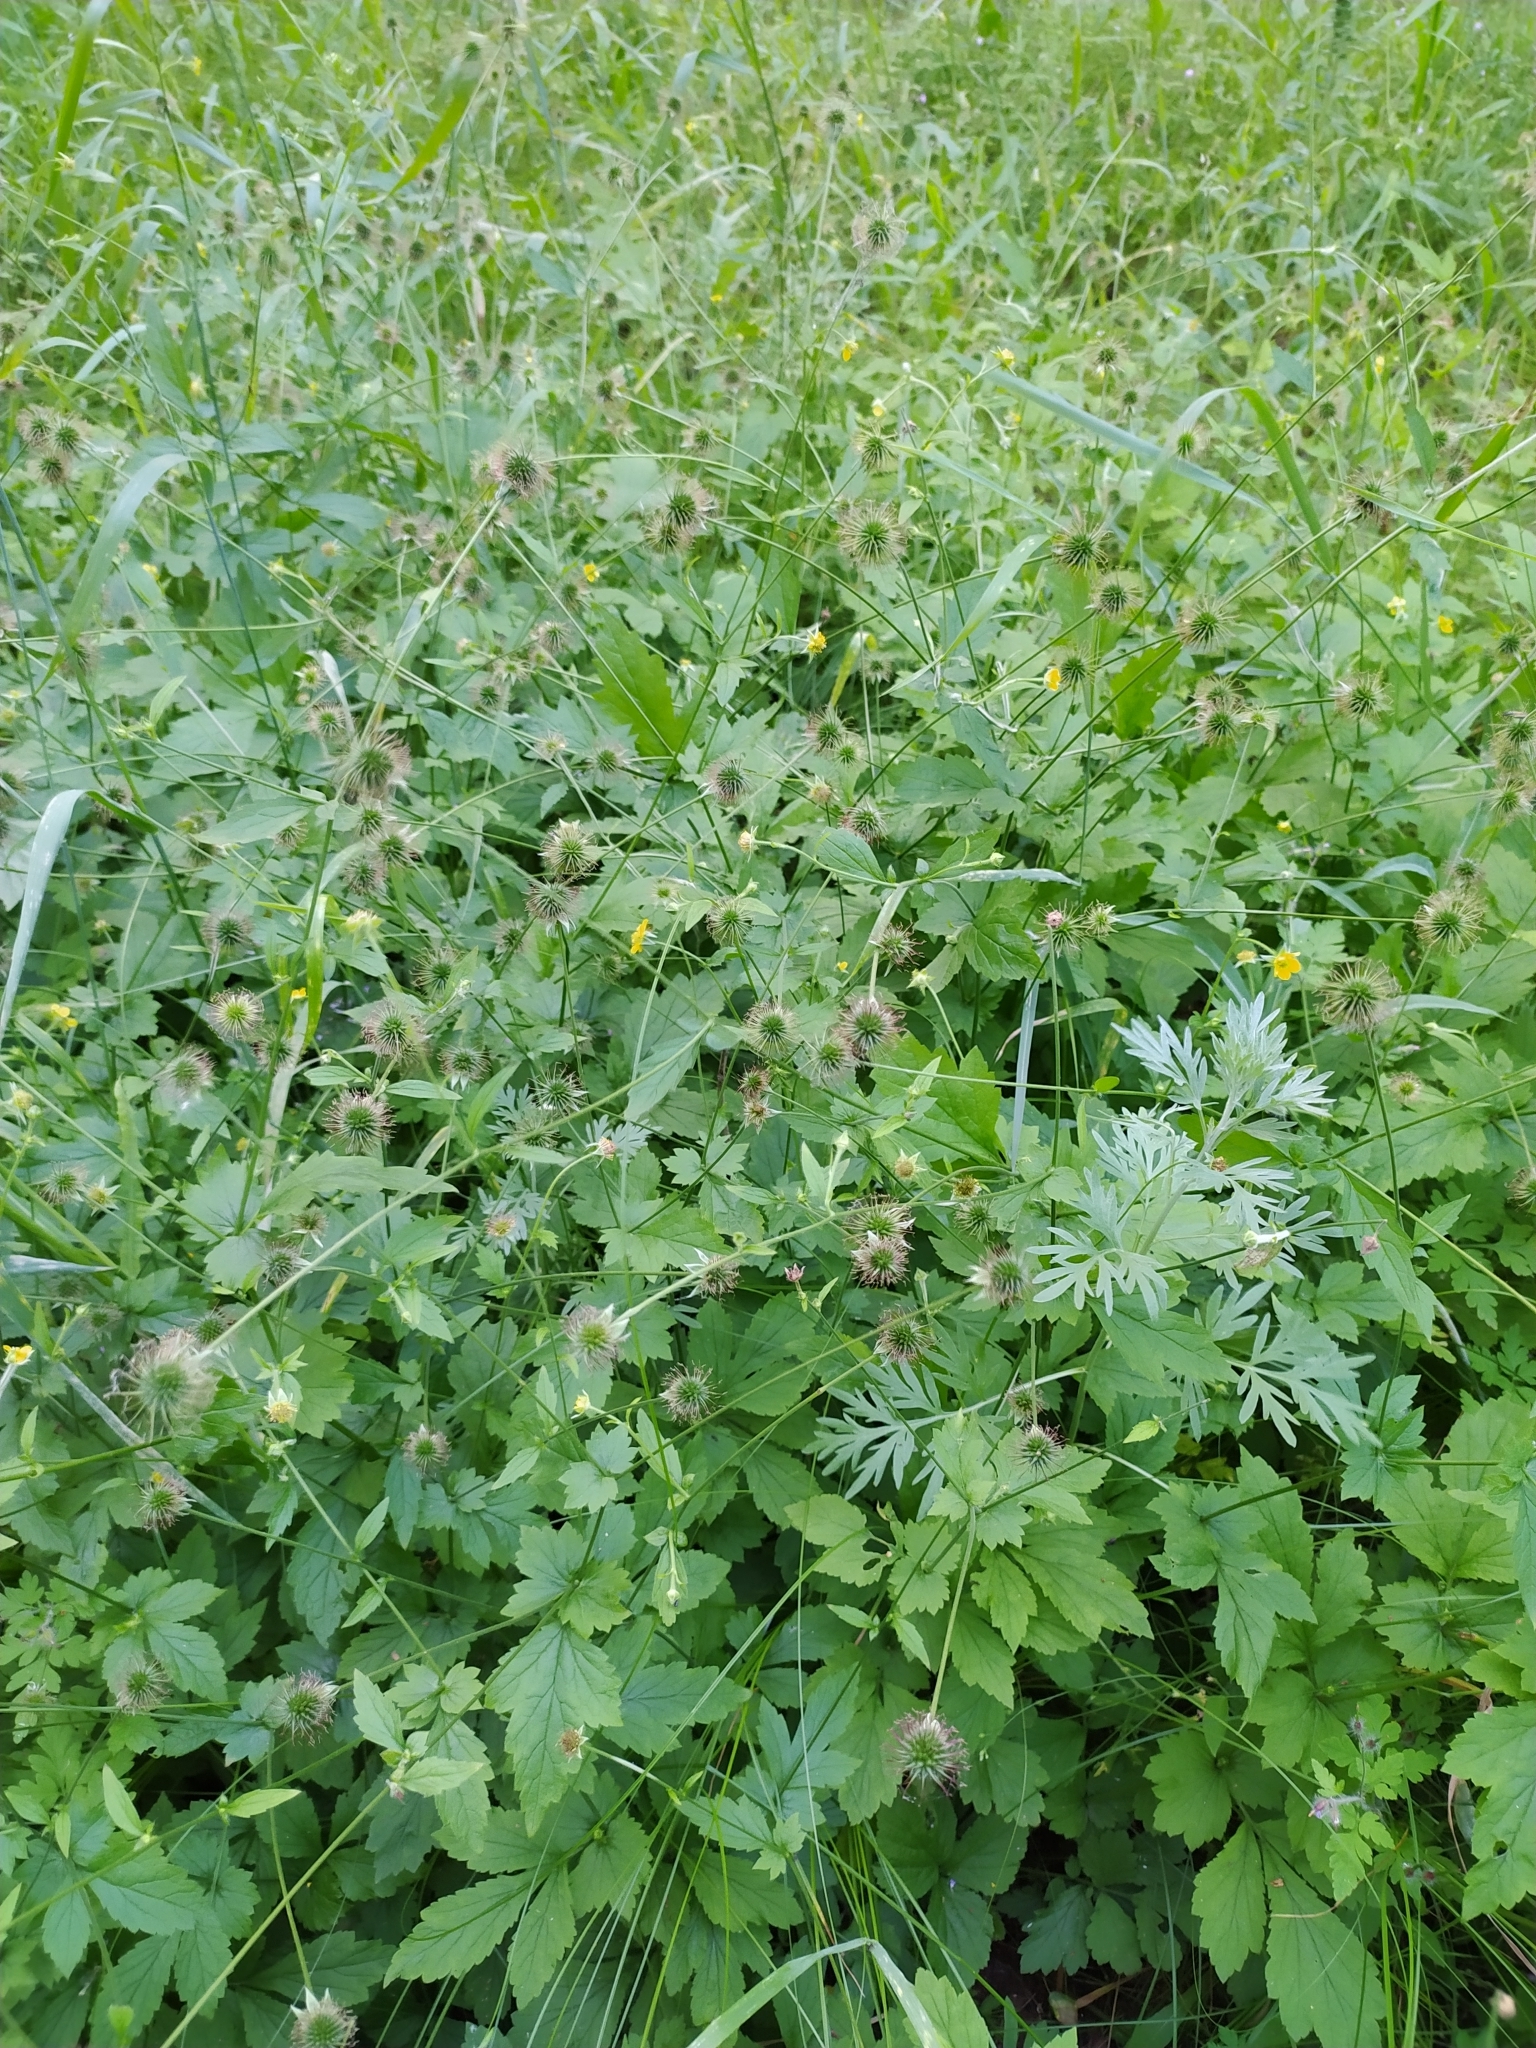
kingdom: Plantae
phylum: Tracheophyta
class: Magnoliopsida
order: Rosales
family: Rosaceae
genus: Geum
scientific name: Geum urbanum
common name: Wood avens
